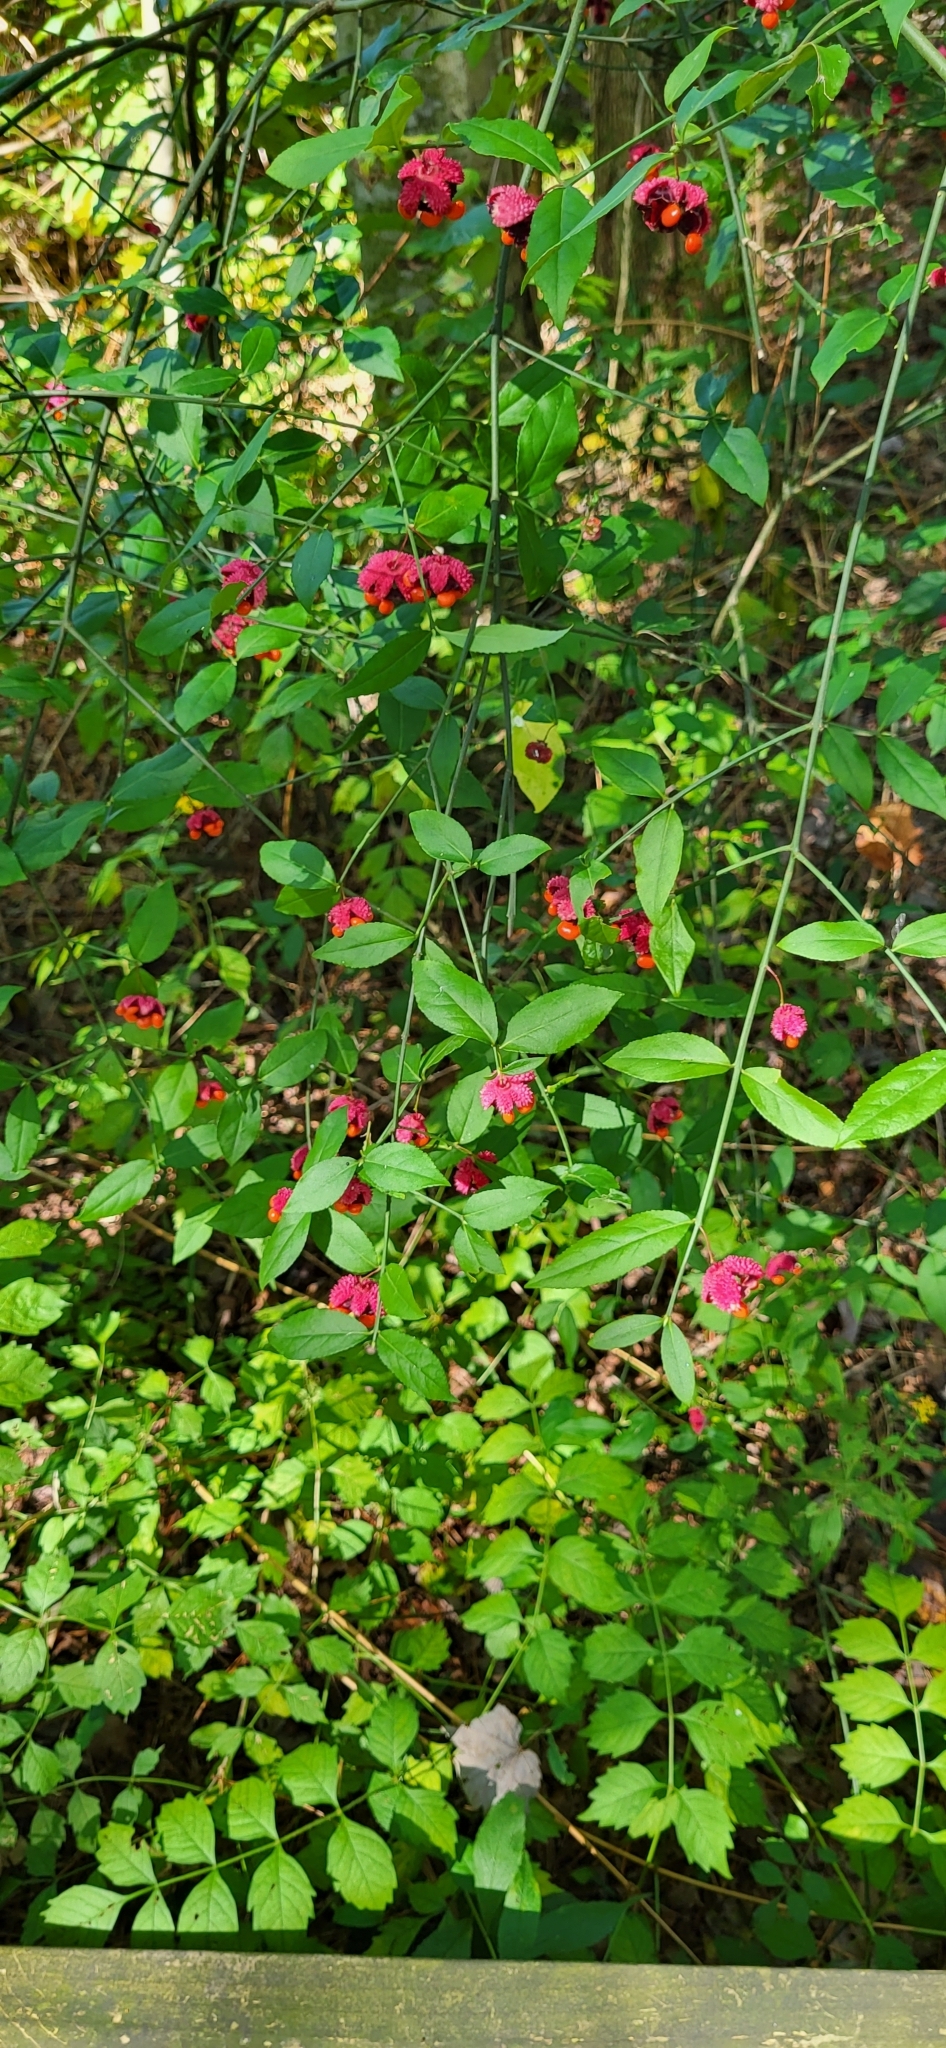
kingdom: Plantae
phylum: Tracheophyta
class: Magnoliopsida
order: Celastrales
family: Celastraceae
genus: Euonymus
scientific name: Euonymus americanus
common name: Bursting-heart
